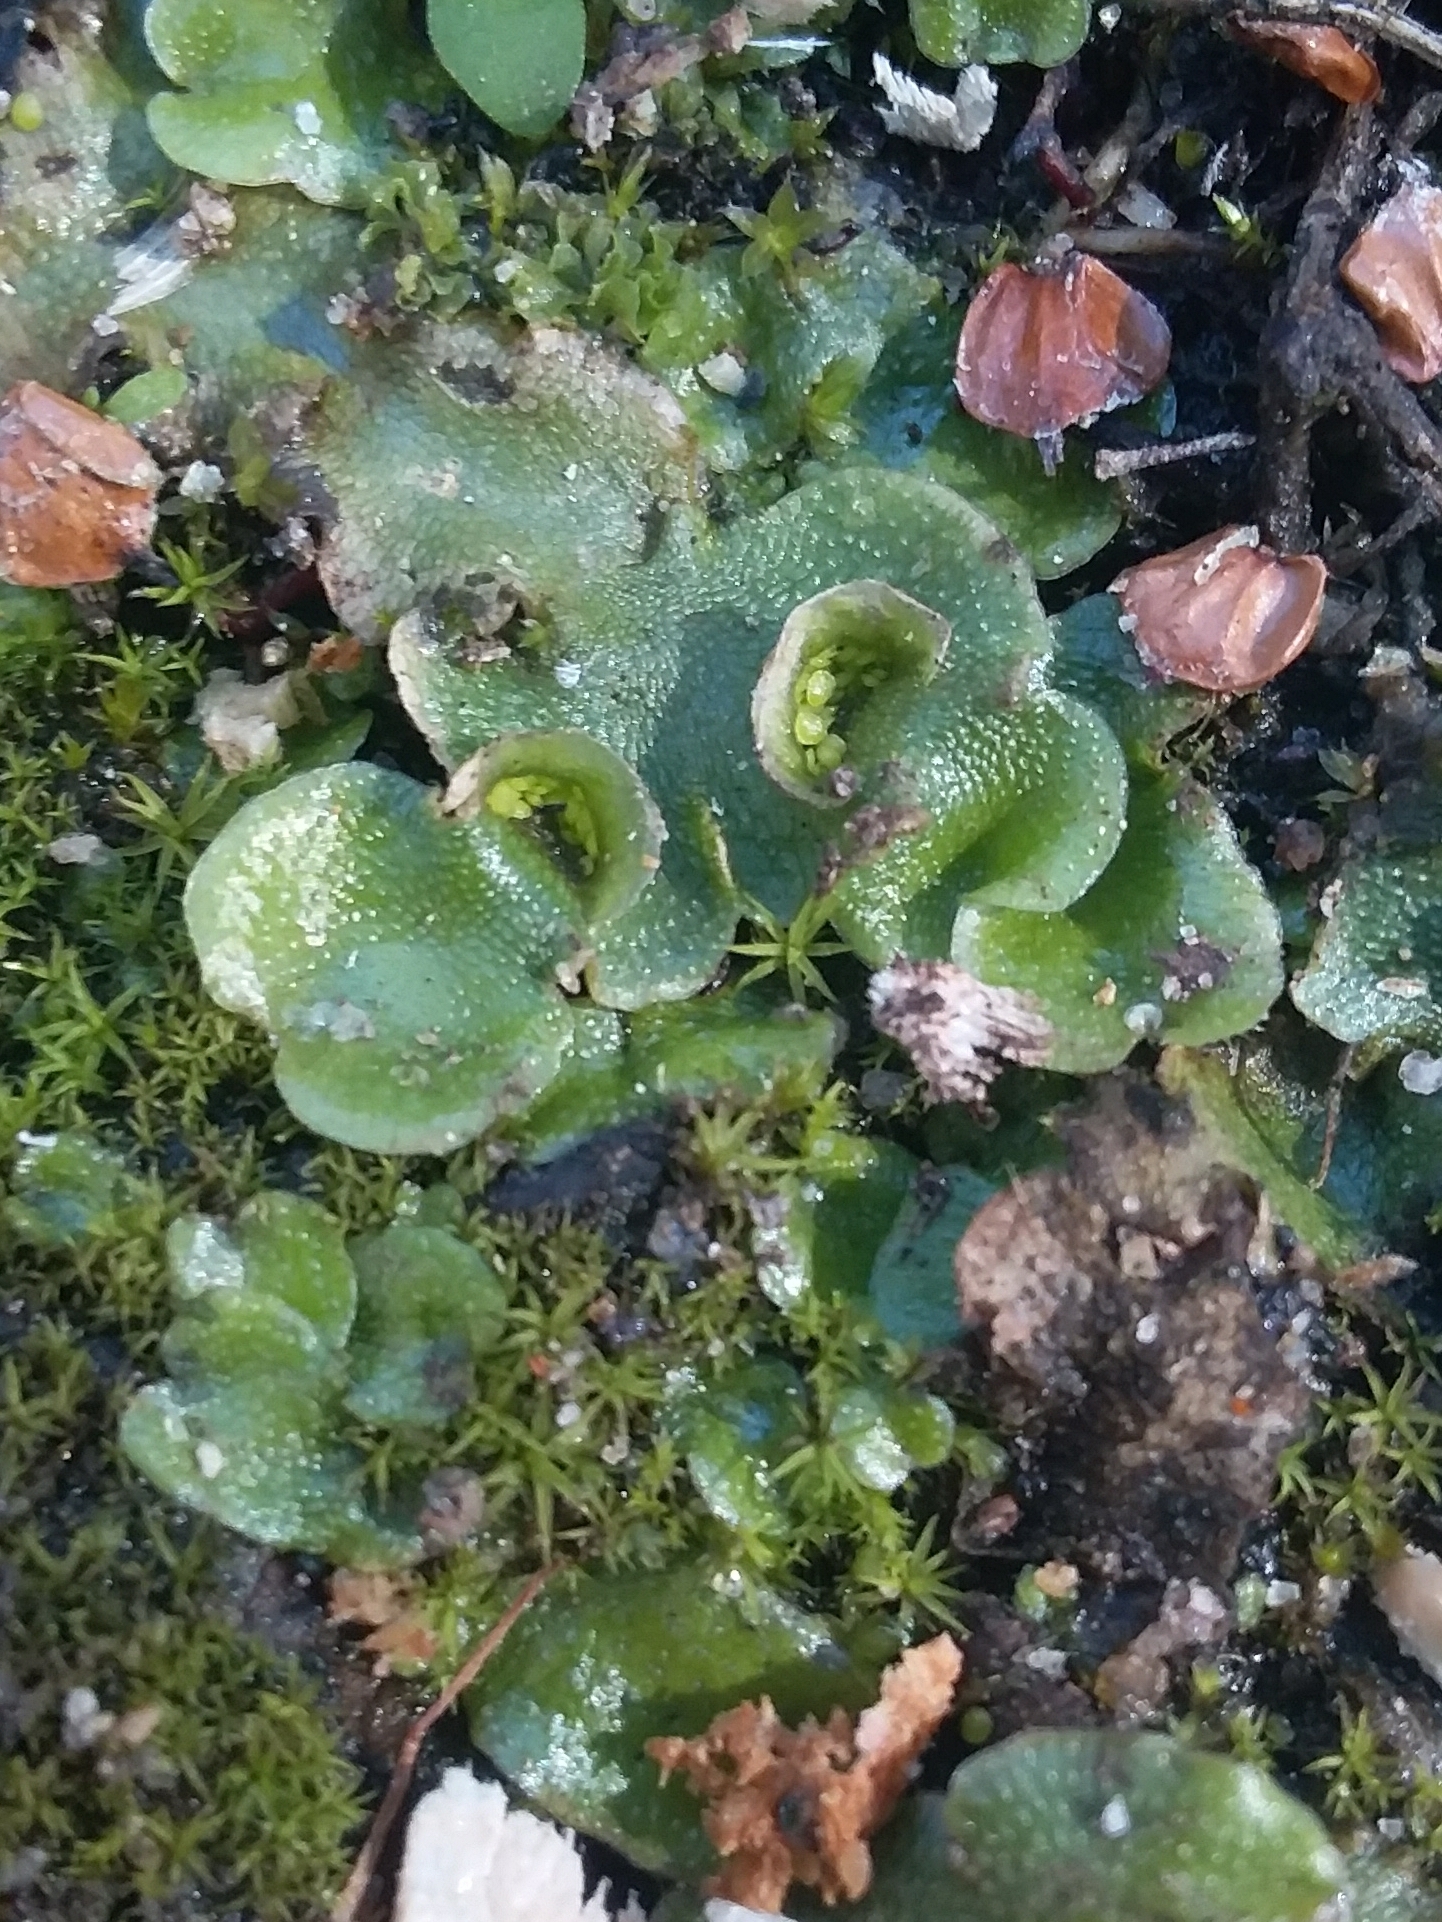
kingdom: Plantae
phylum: Marchantiophyta
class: Marchantiopsida
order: Lunulariales
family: Lunulariaceae
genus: Lunularia
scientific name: Lunularia cruciata
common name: Crescent-cup liverwort
